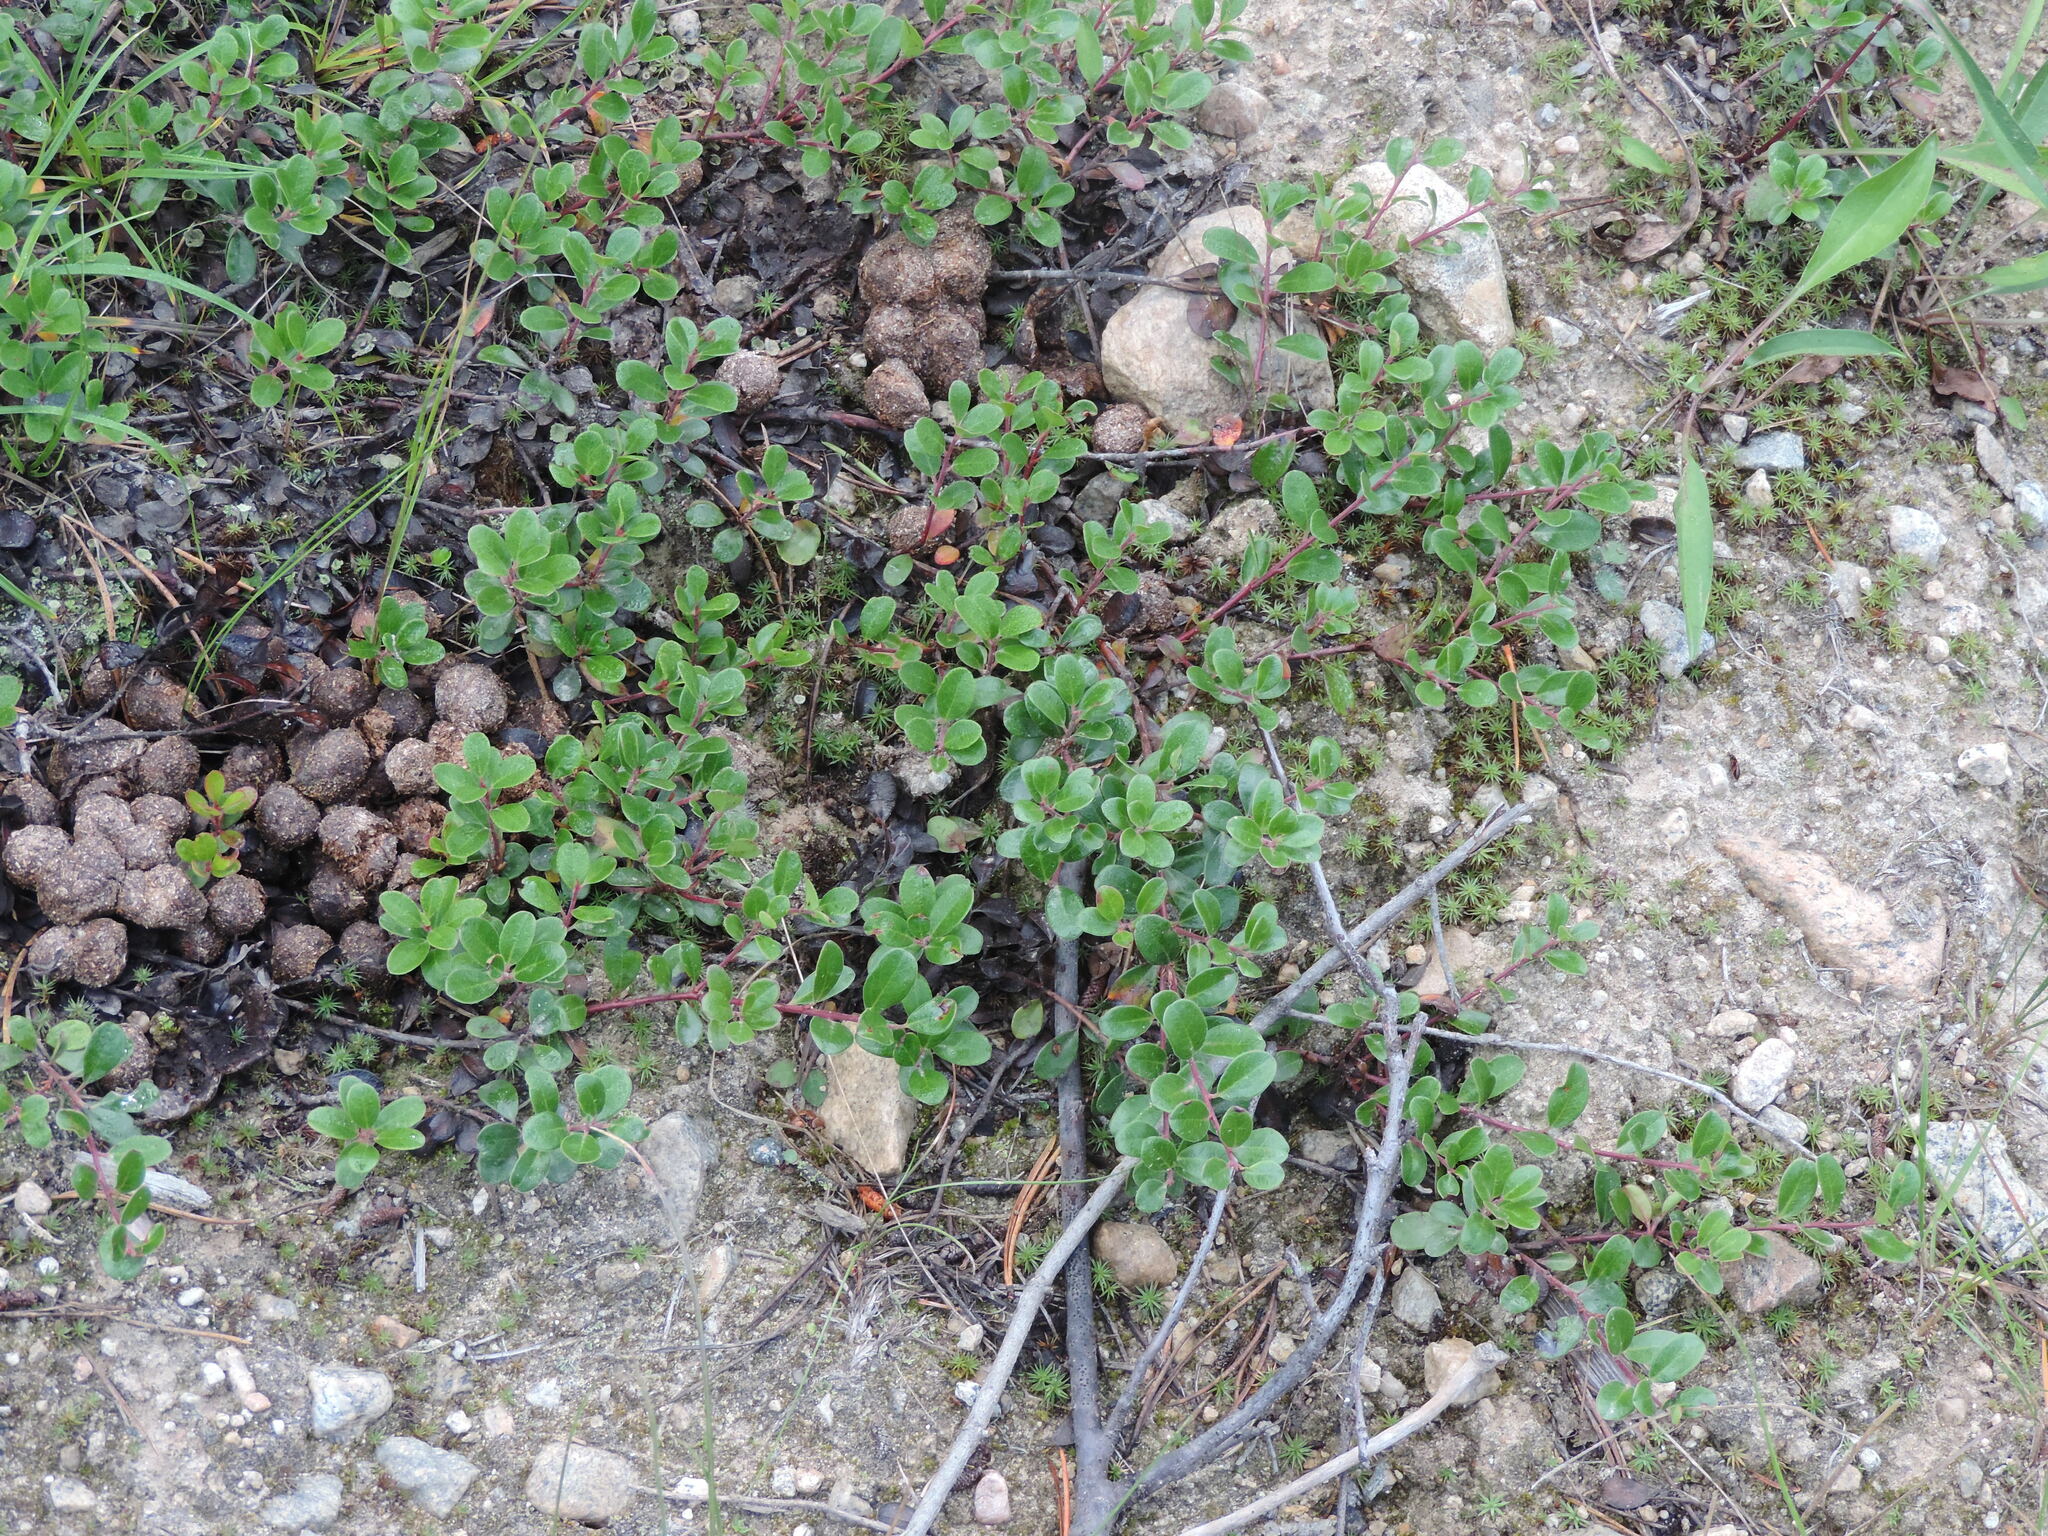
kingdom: Plantae
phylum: Tracheophyta
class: Magnoliopsida
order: Ericales
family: Ericaceae
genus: Arctostaphylos
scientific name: Arctostaphylos uva-ursi
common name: Bearberry
